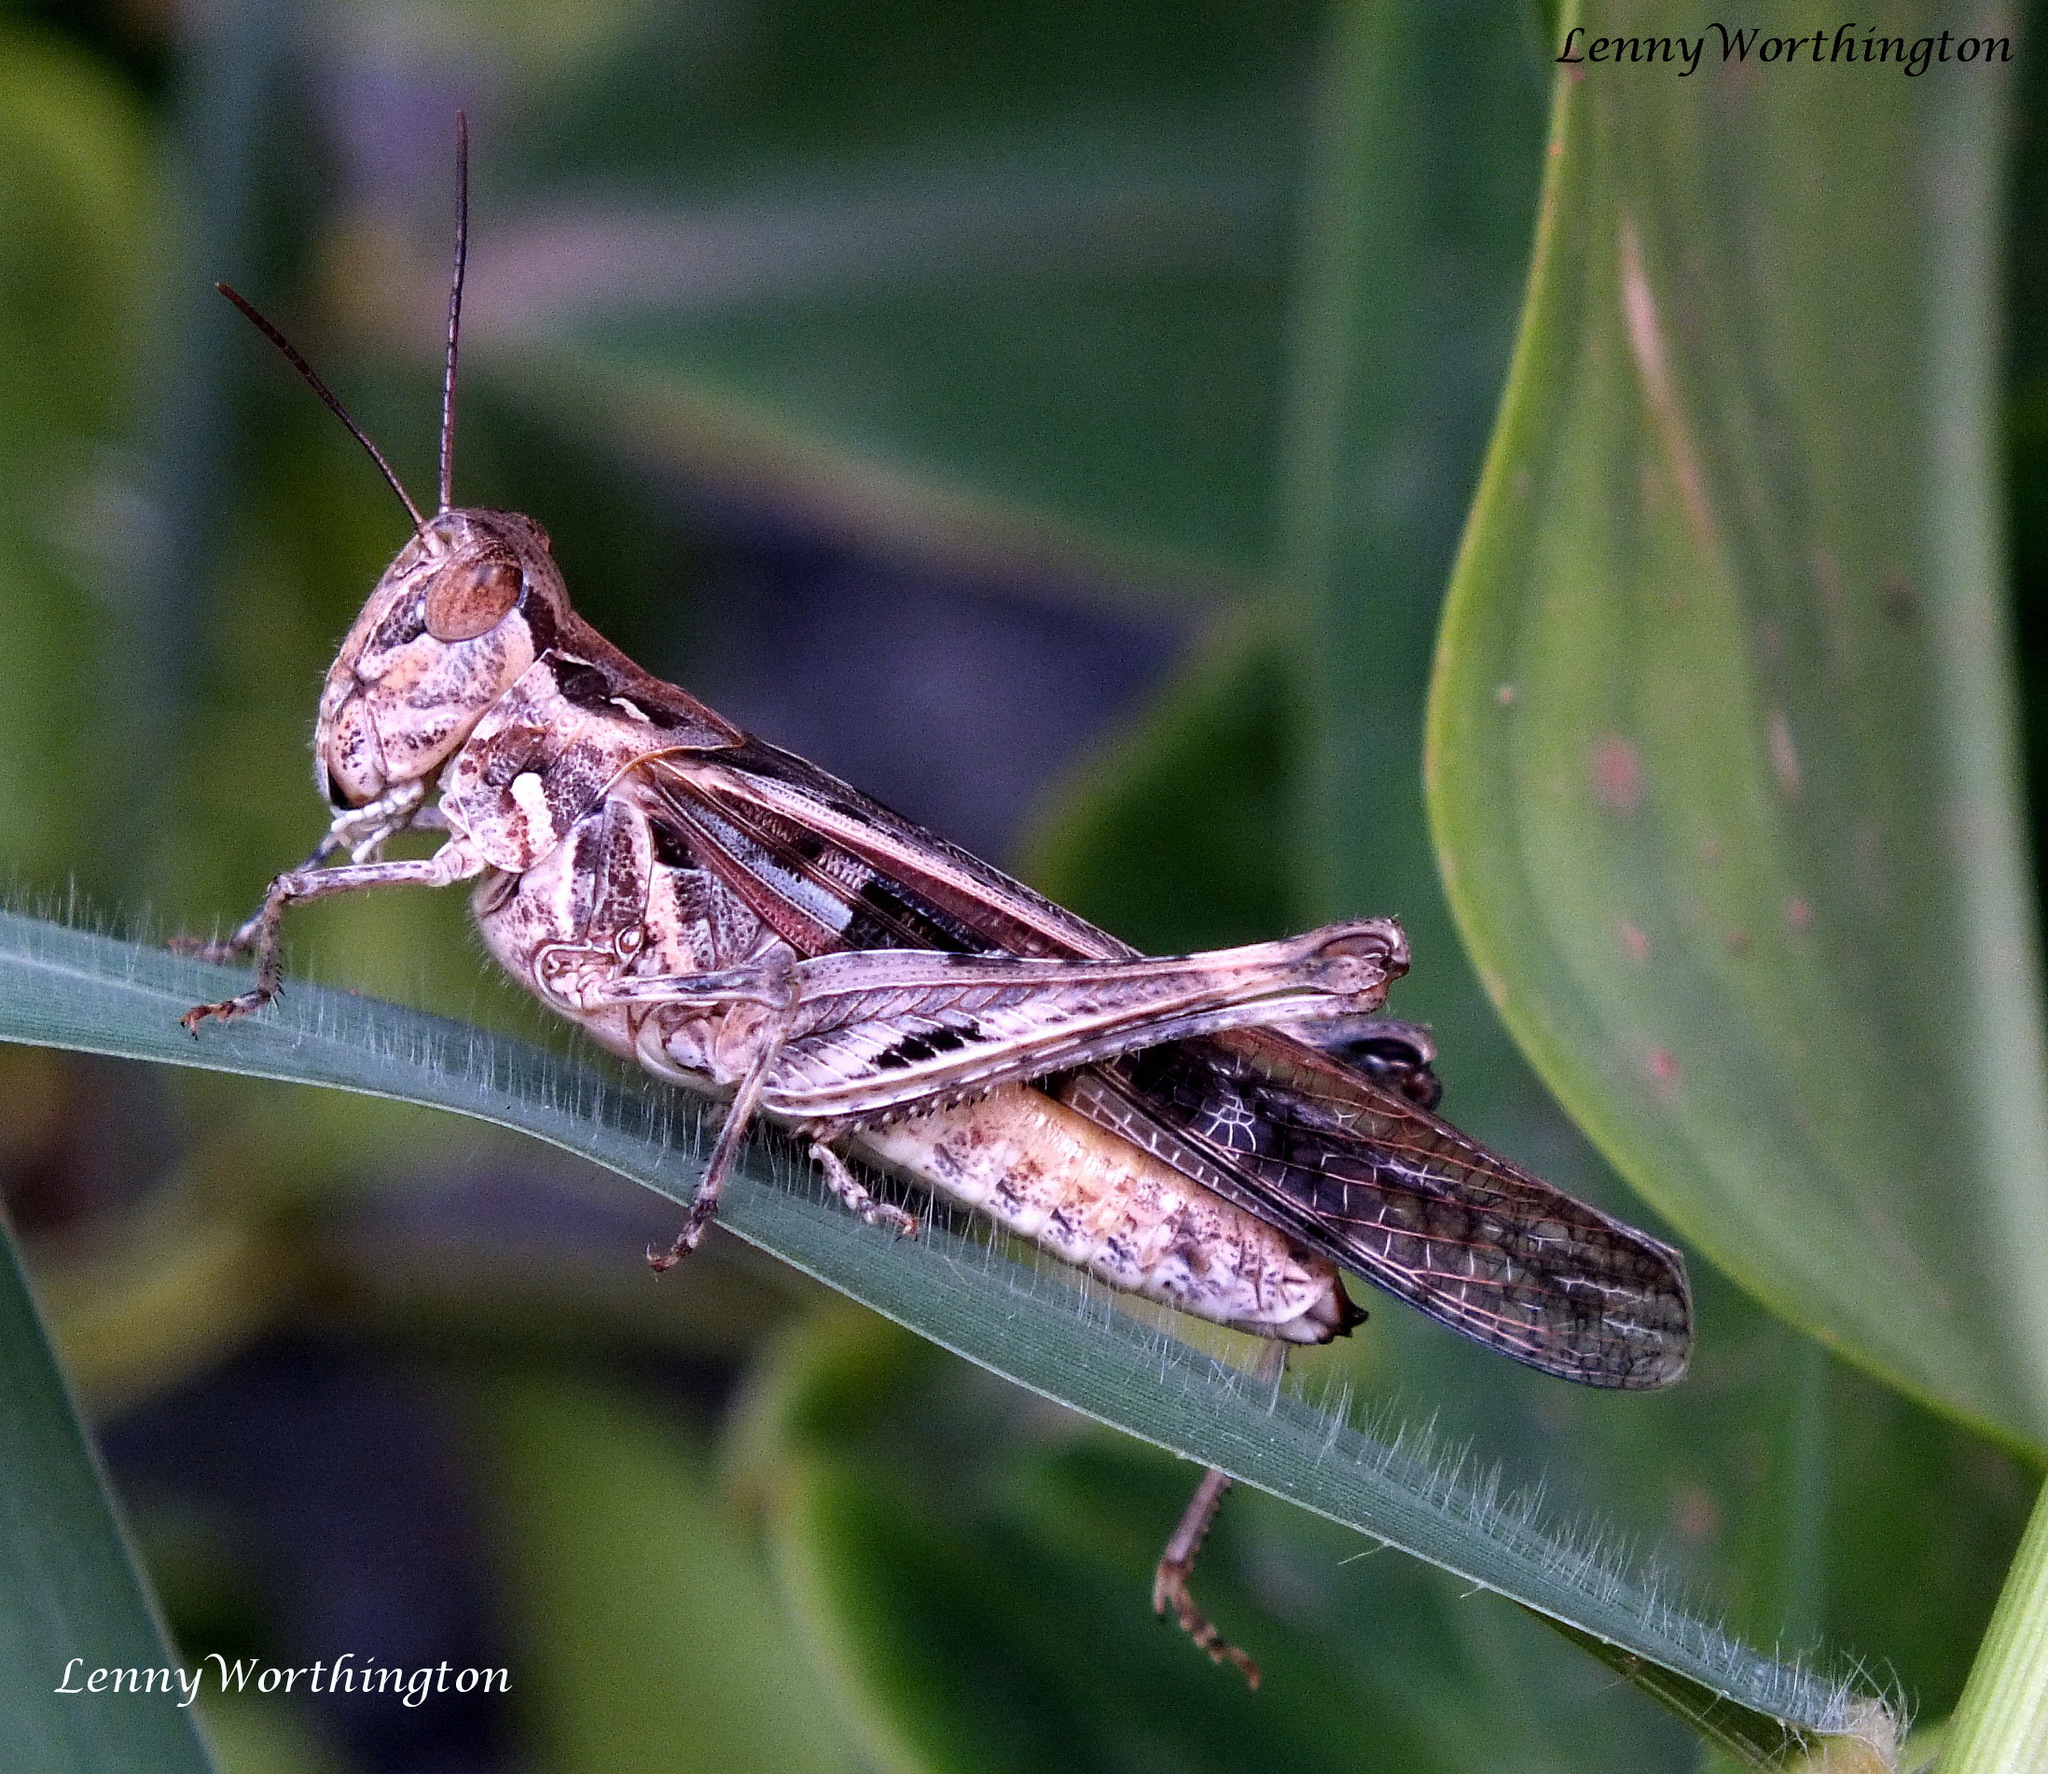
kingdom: Animalia
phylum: Arthropoda
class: Insecta
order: Orthoptera
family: Acrididae
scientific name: Acrididae
